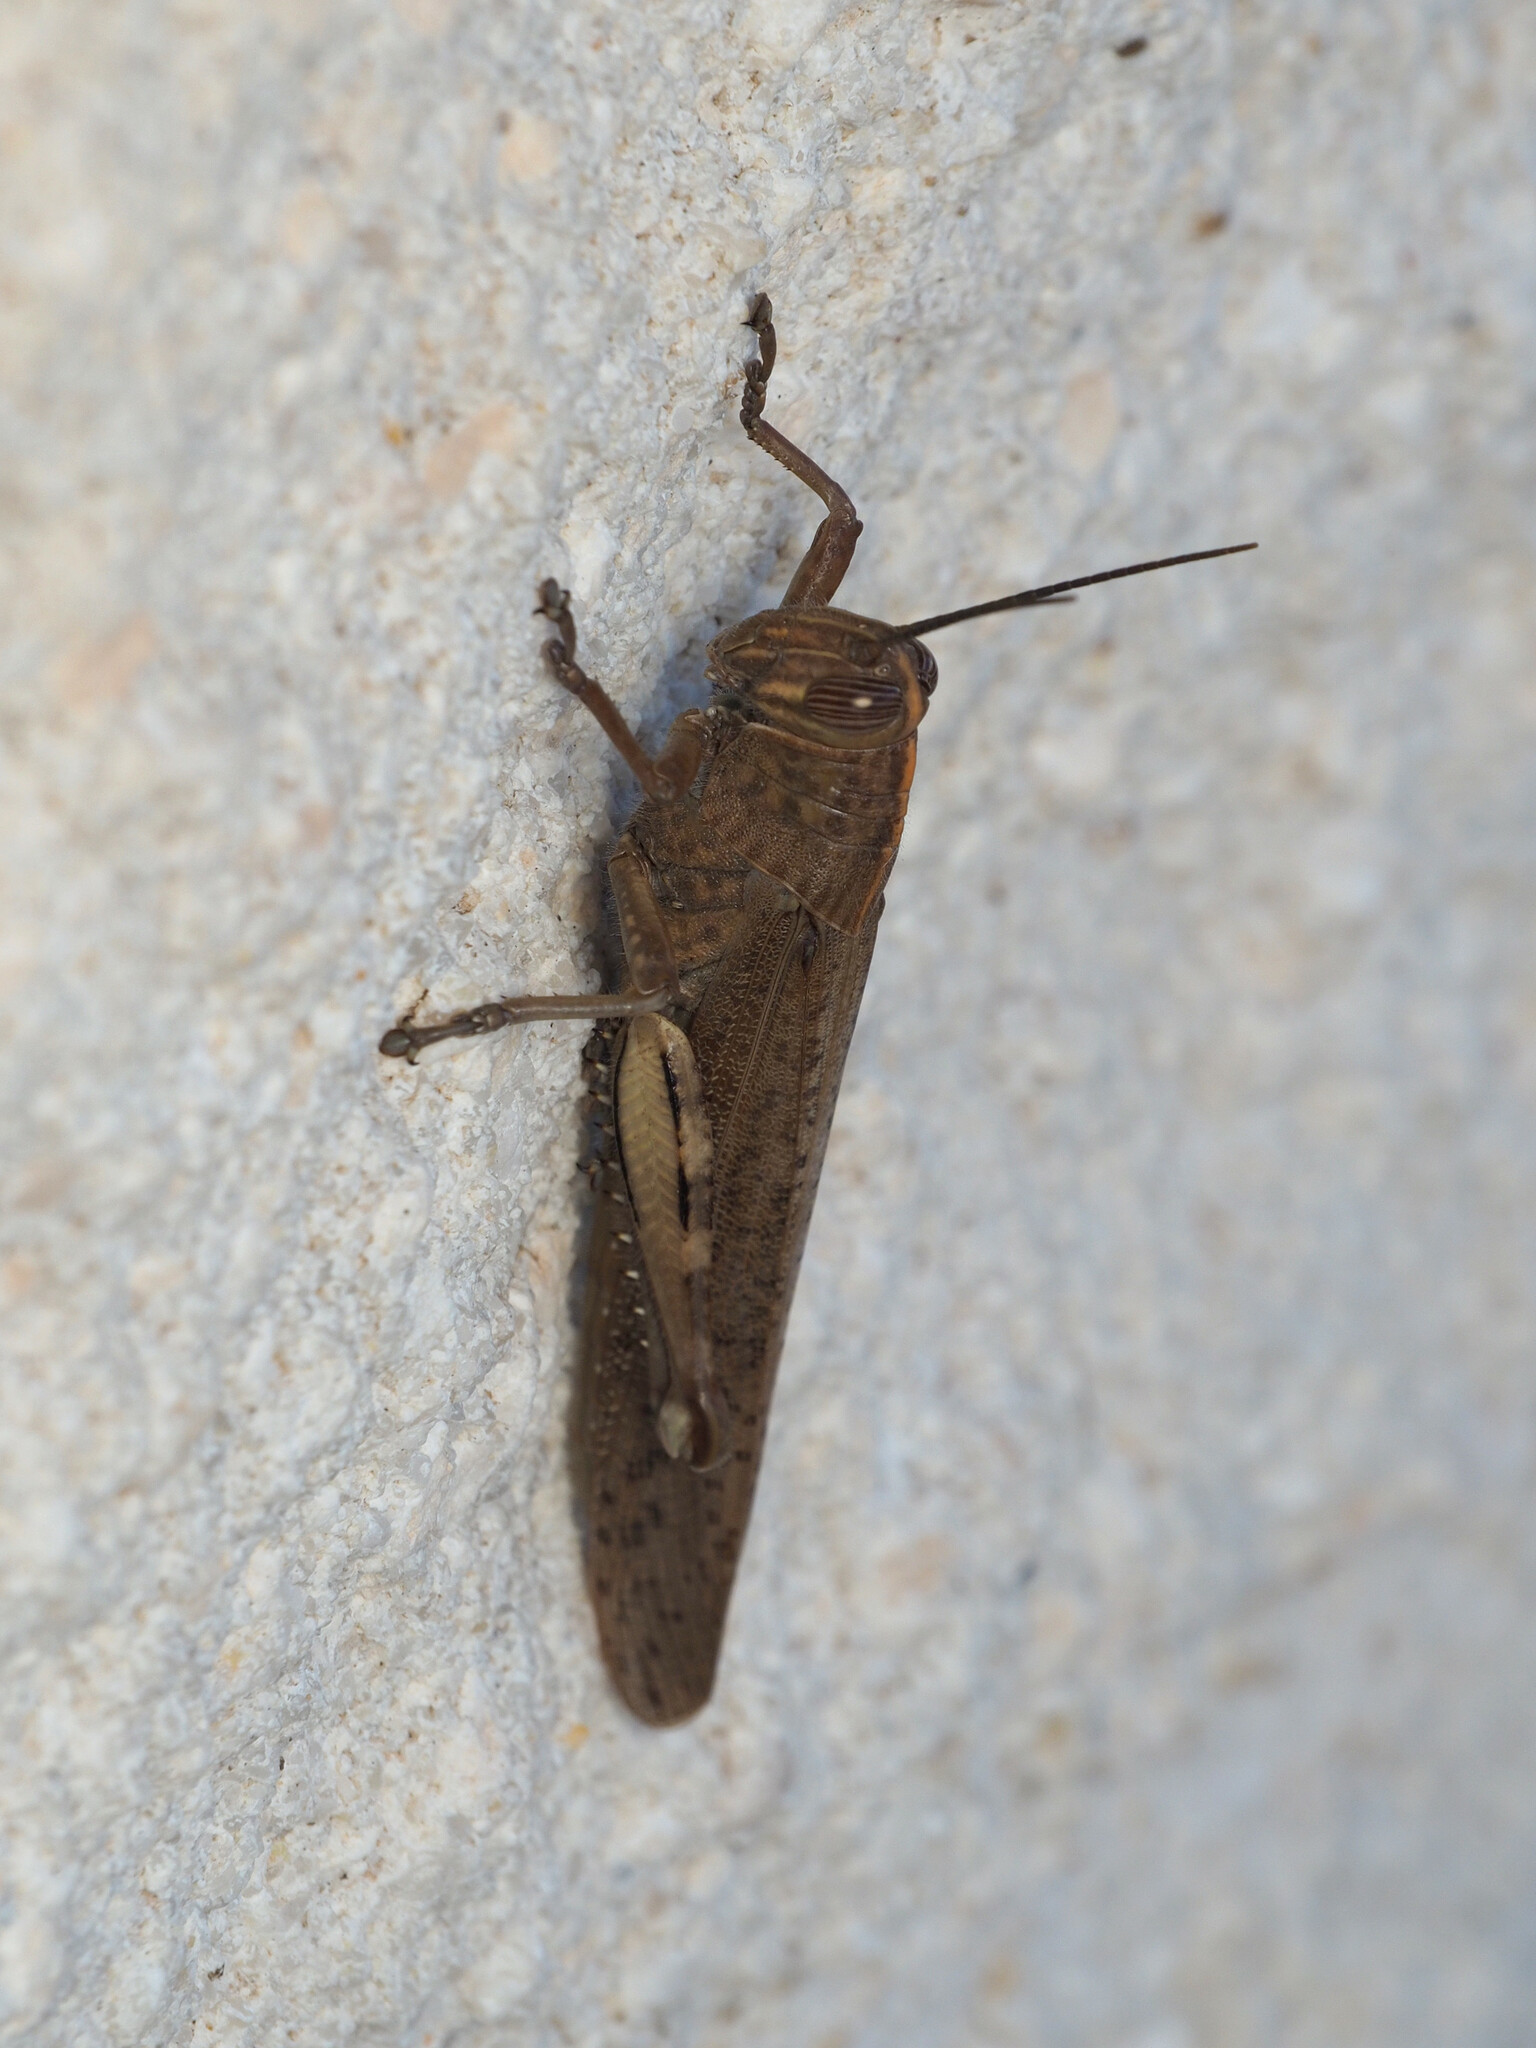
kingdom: Animalia
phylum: Arthropoda
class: Insecta
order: Orthoptera
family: Acrididae
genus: Anacridium
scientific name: Anacridium aegyptium
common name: Egyptian grasshopper
